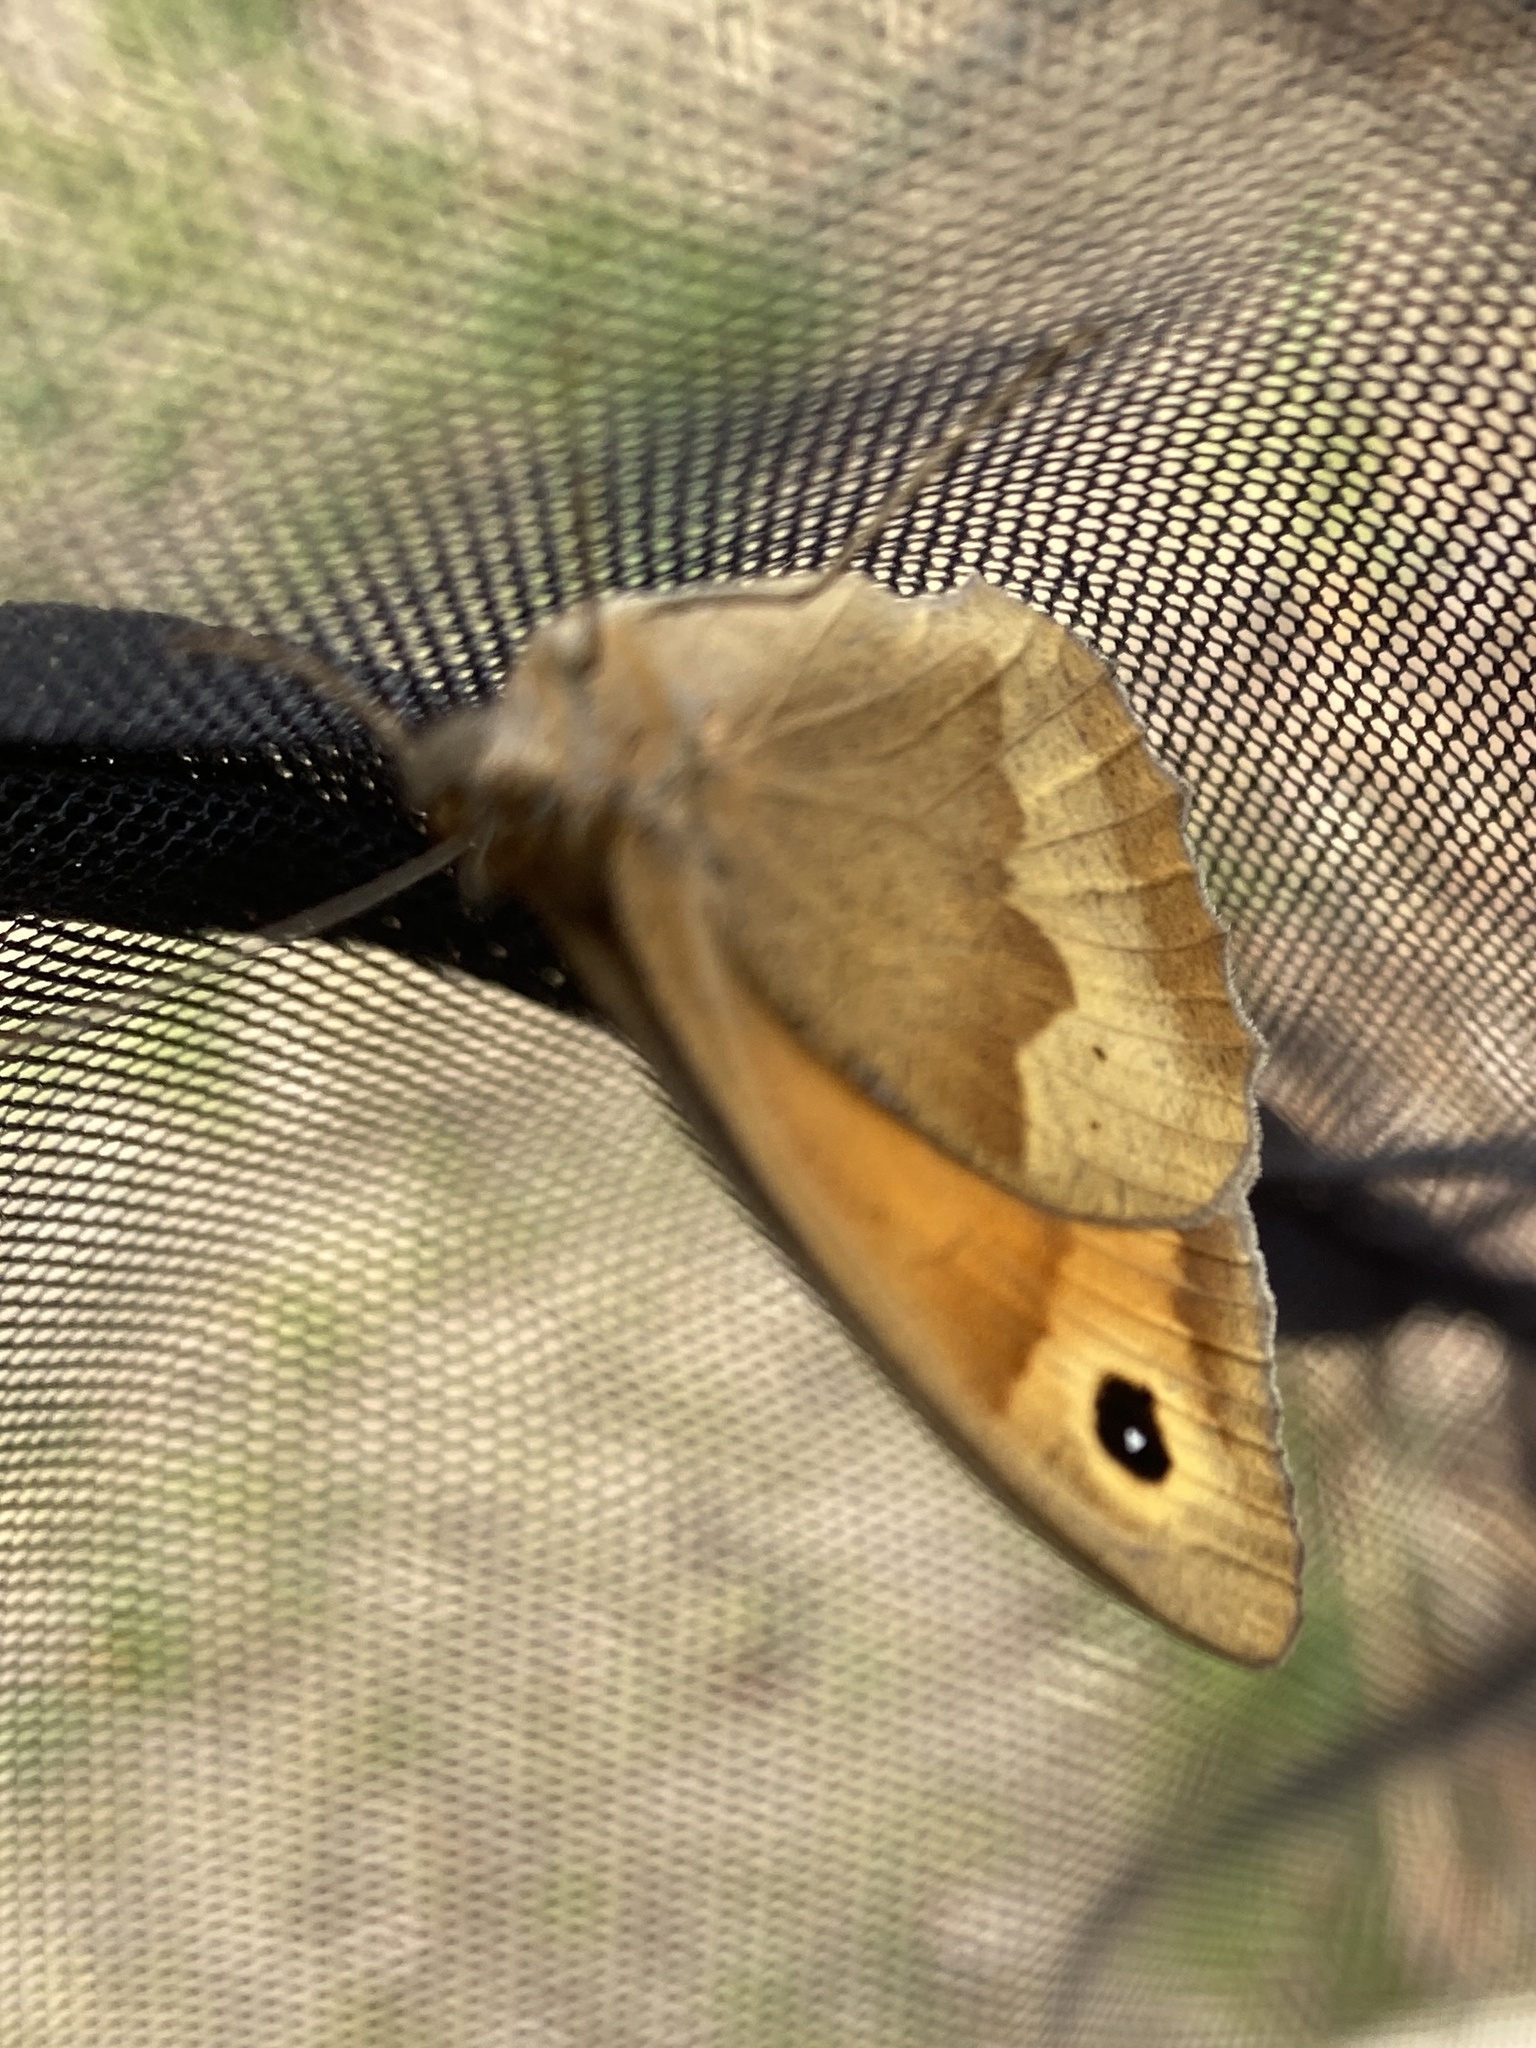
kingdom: Animalia
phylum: Arthropoda
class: Insecta
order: Lepidoptera
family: Nymphalidae
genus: Maniola
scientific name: Maniola jurtina
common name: Meadow brown
